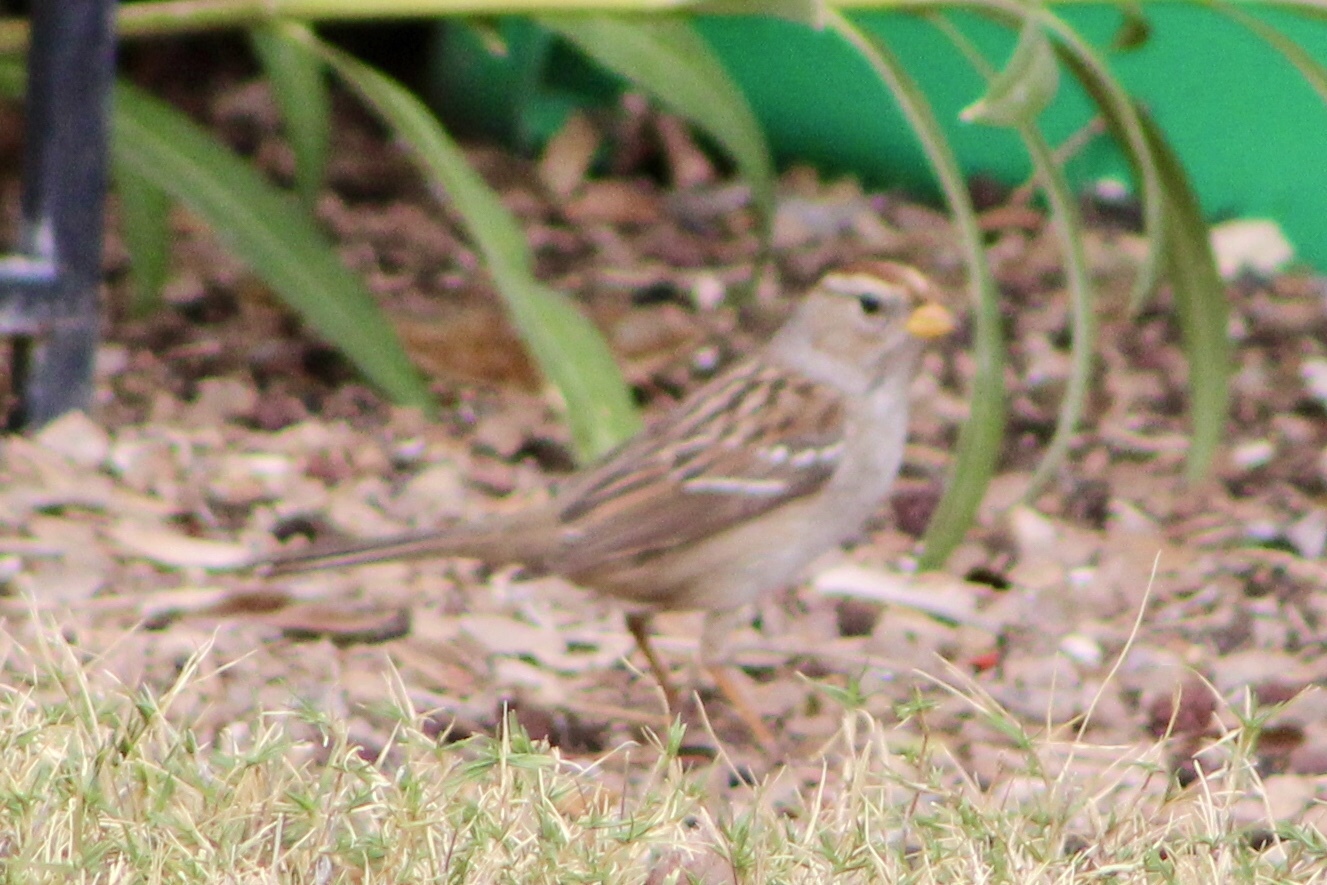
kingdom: Animalia
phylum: Chordata
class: Aves
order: Passeriformes
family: Passerellidae
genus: Zonotrichia
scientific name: Zonotrichia leucophrys
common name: White-crowned sparrow
